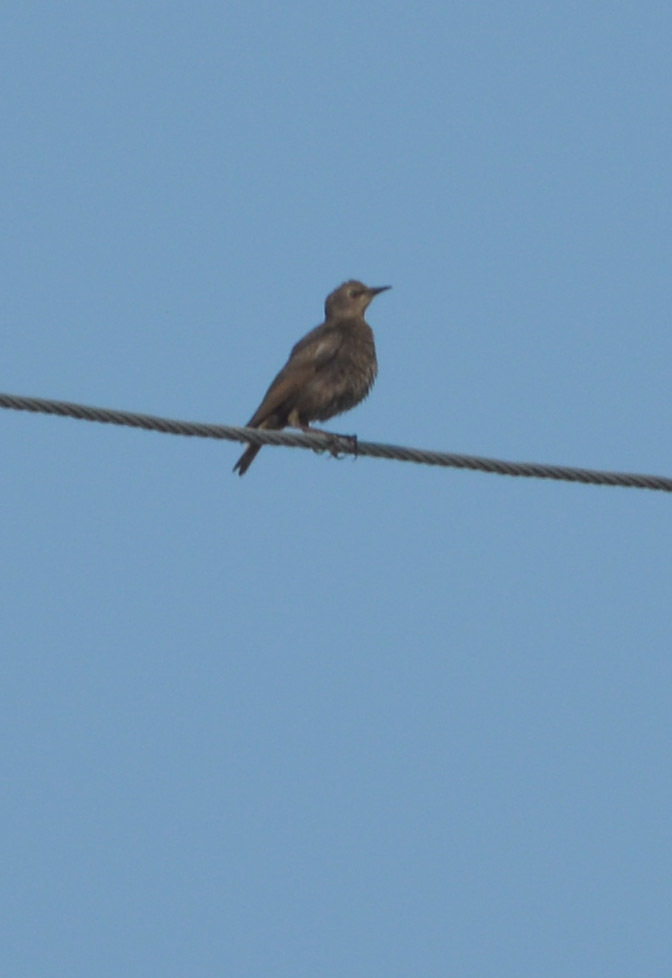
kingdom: Animalia
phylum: Chordata
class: Aves
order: Passeriformes
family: Sturnidae
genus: Sturnus
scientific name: Sturnus vulgaris
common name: Common starling
